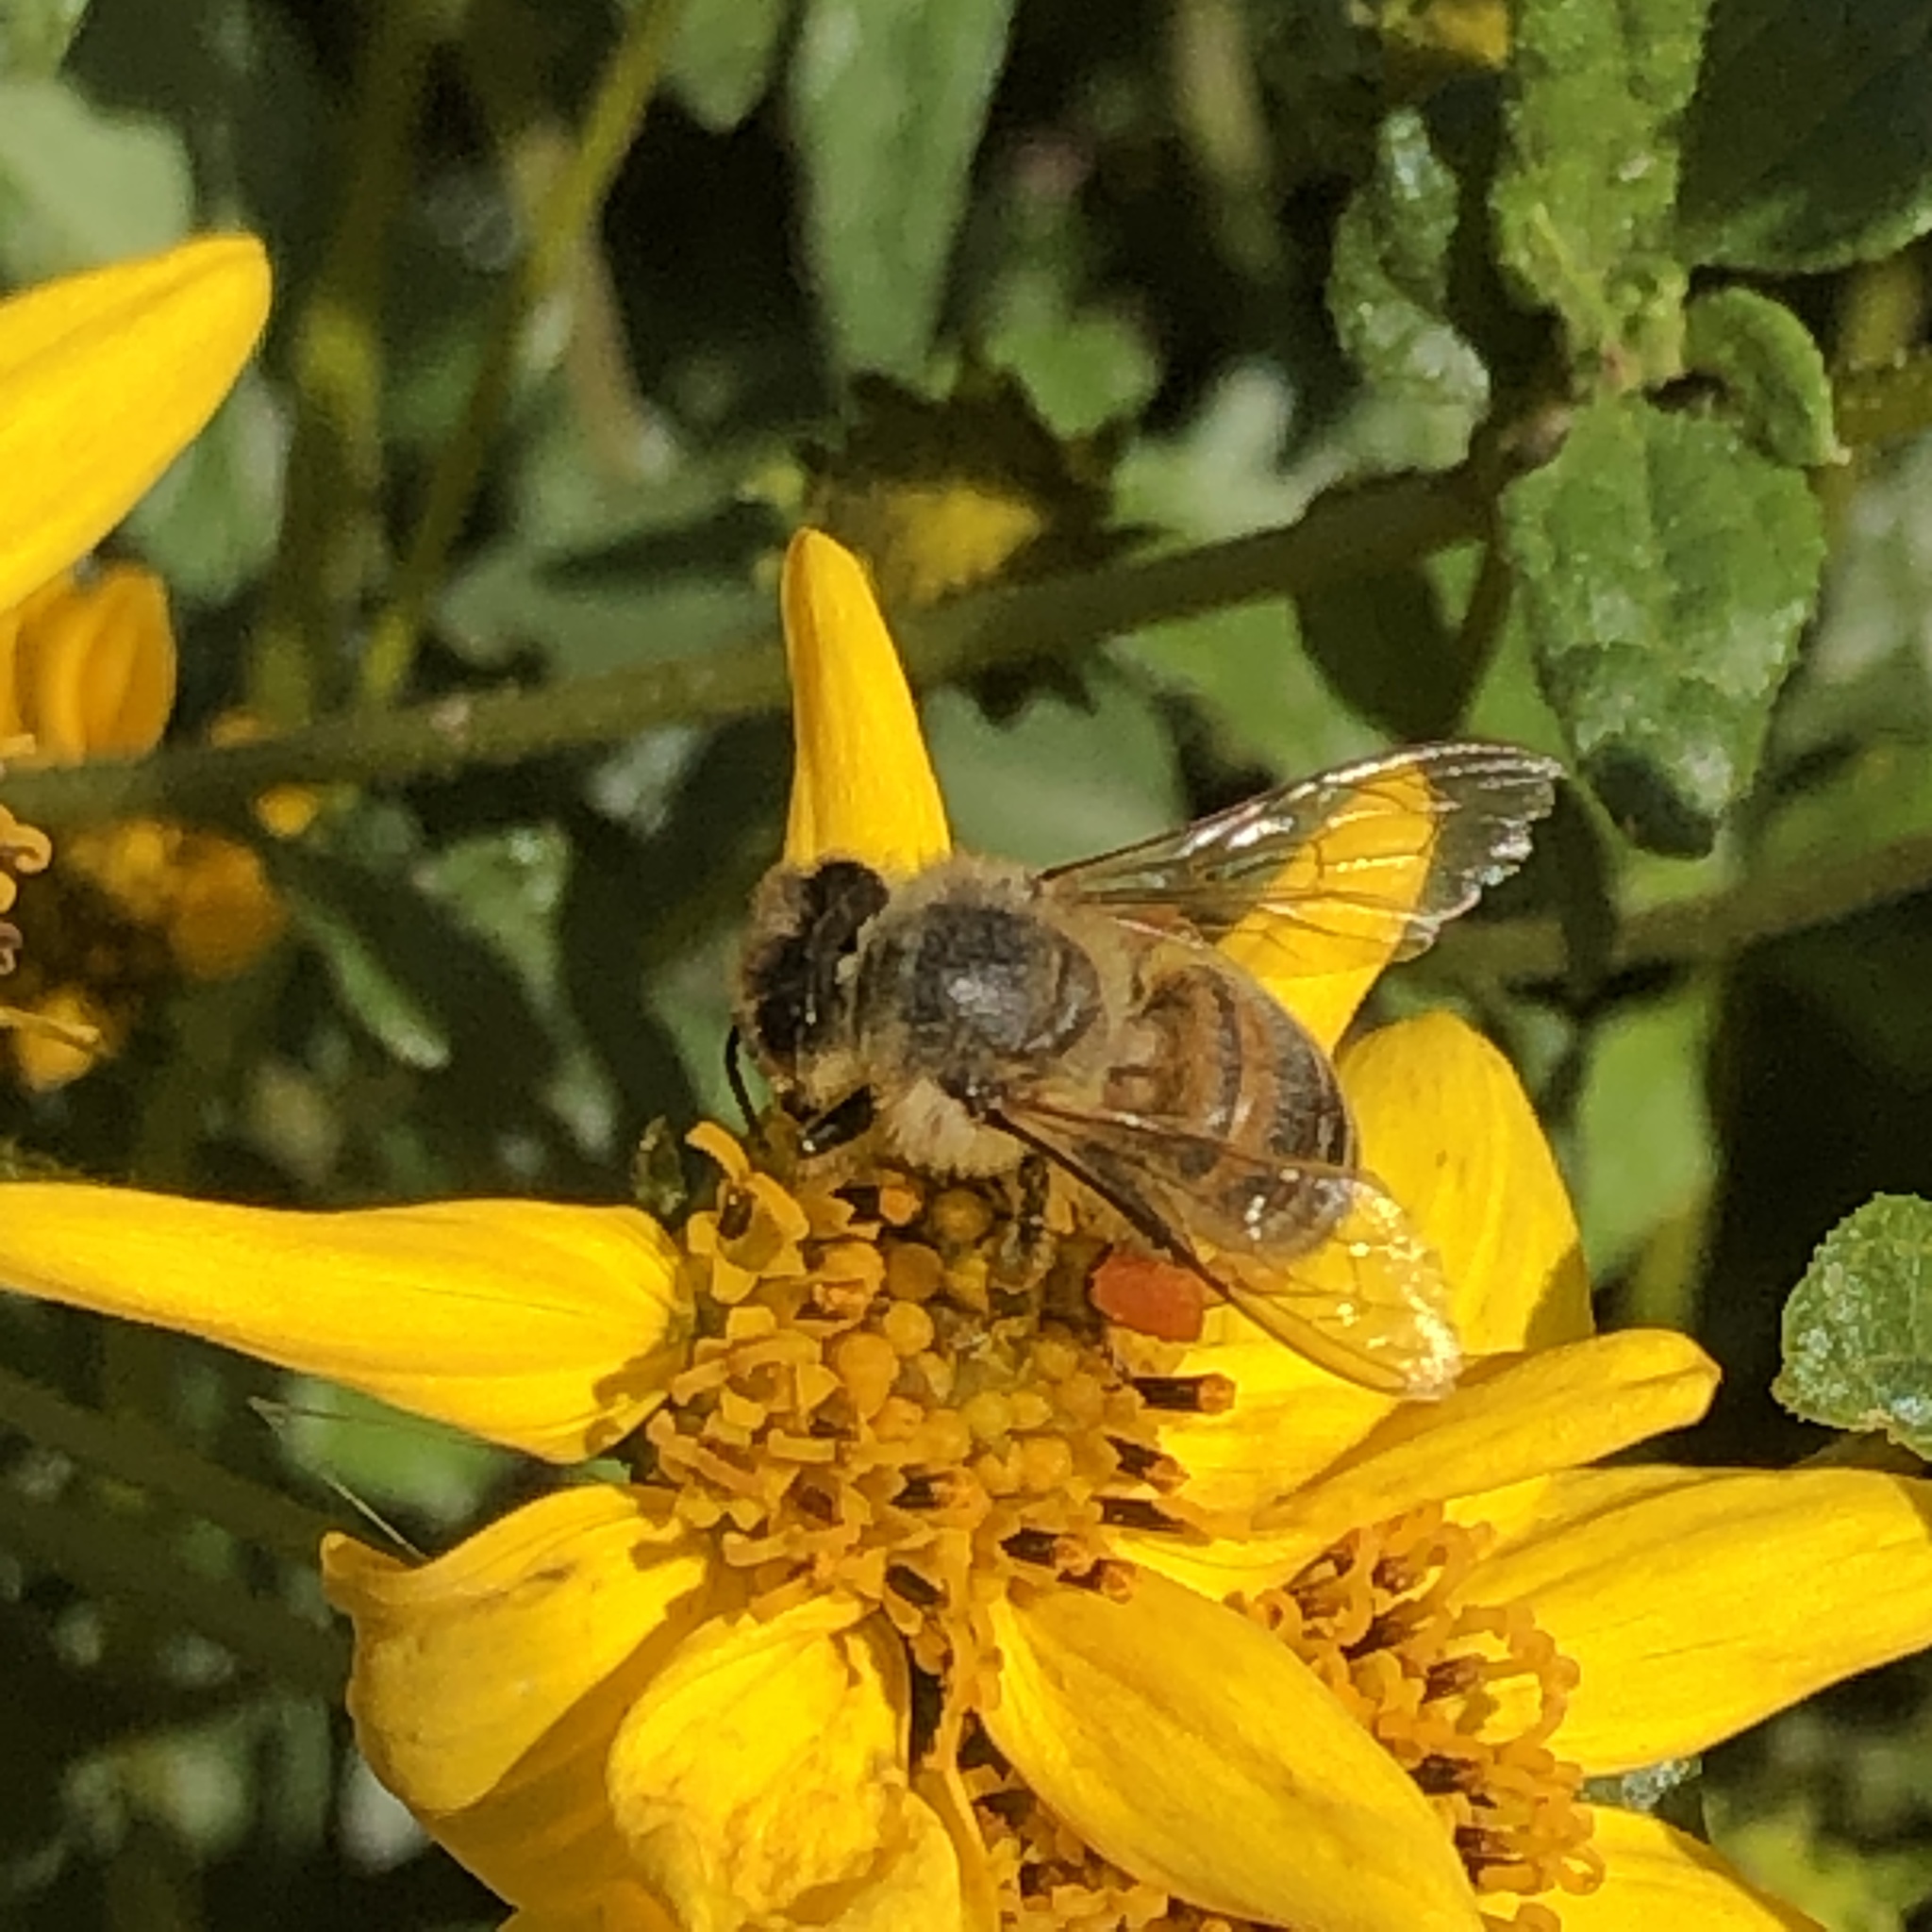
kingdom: Animalia
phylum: Arthropoda
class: Insecta
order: Hymenoptera
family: Apidae
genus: Apis
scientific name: Apis mellifera
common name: Honey bee
